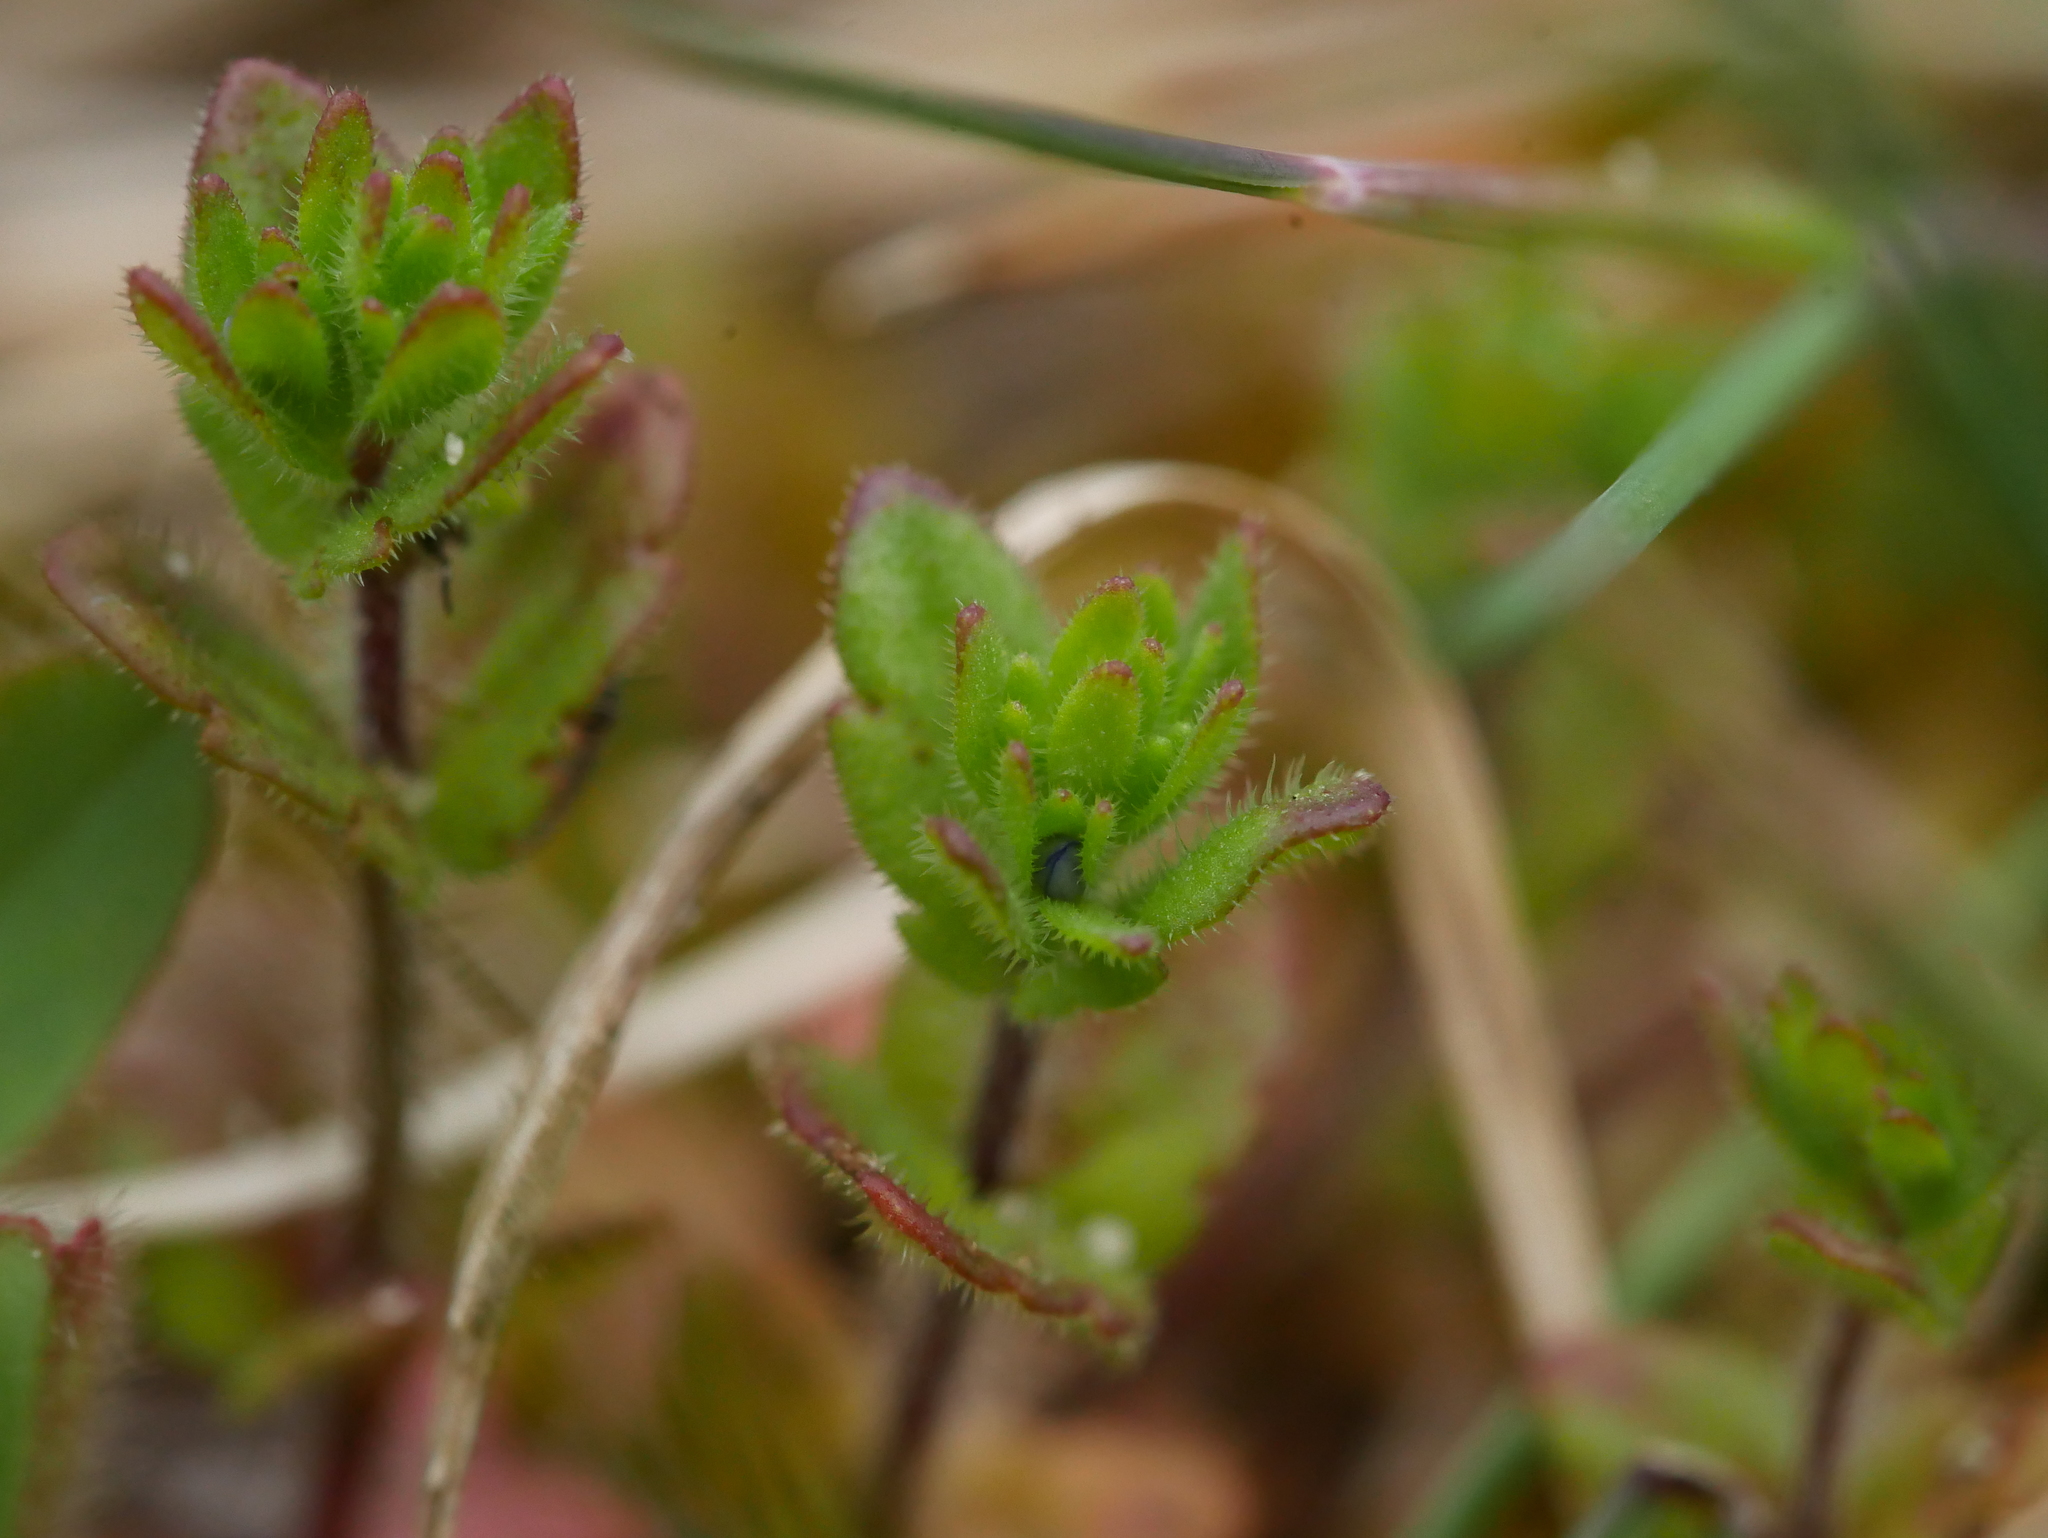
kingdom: Plantae
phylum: Tracheophyta
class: Magnoliopsida
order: Lamiales
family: Plantaginaceae
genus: Veronica
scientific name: Veronica arvensis
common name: Corn speedwell
